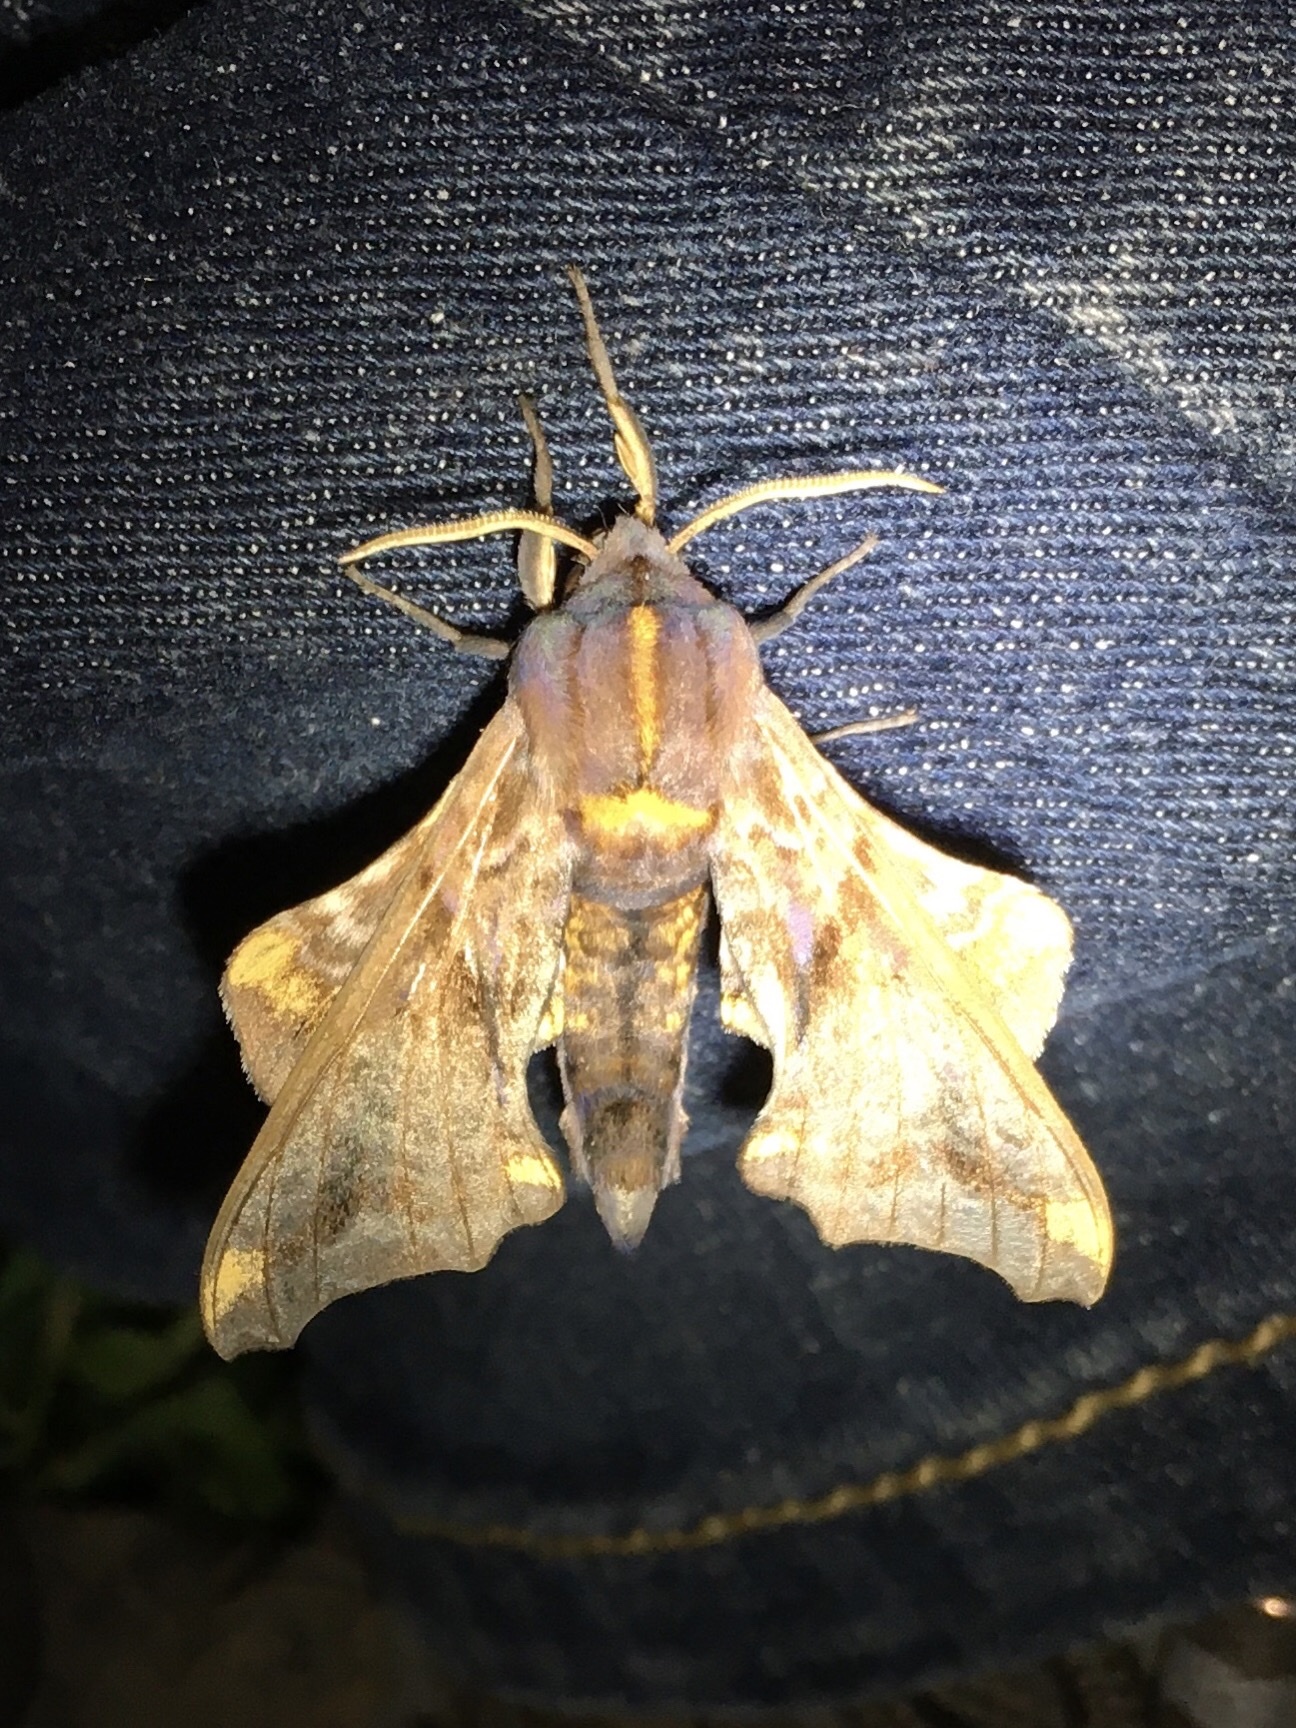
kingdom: Animalia
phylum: Arthropoda
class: Insecta
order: Lepidoptera
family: Sphingidae
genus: Paonias
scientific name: Paonias myops
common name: Small-eyed sphinx
